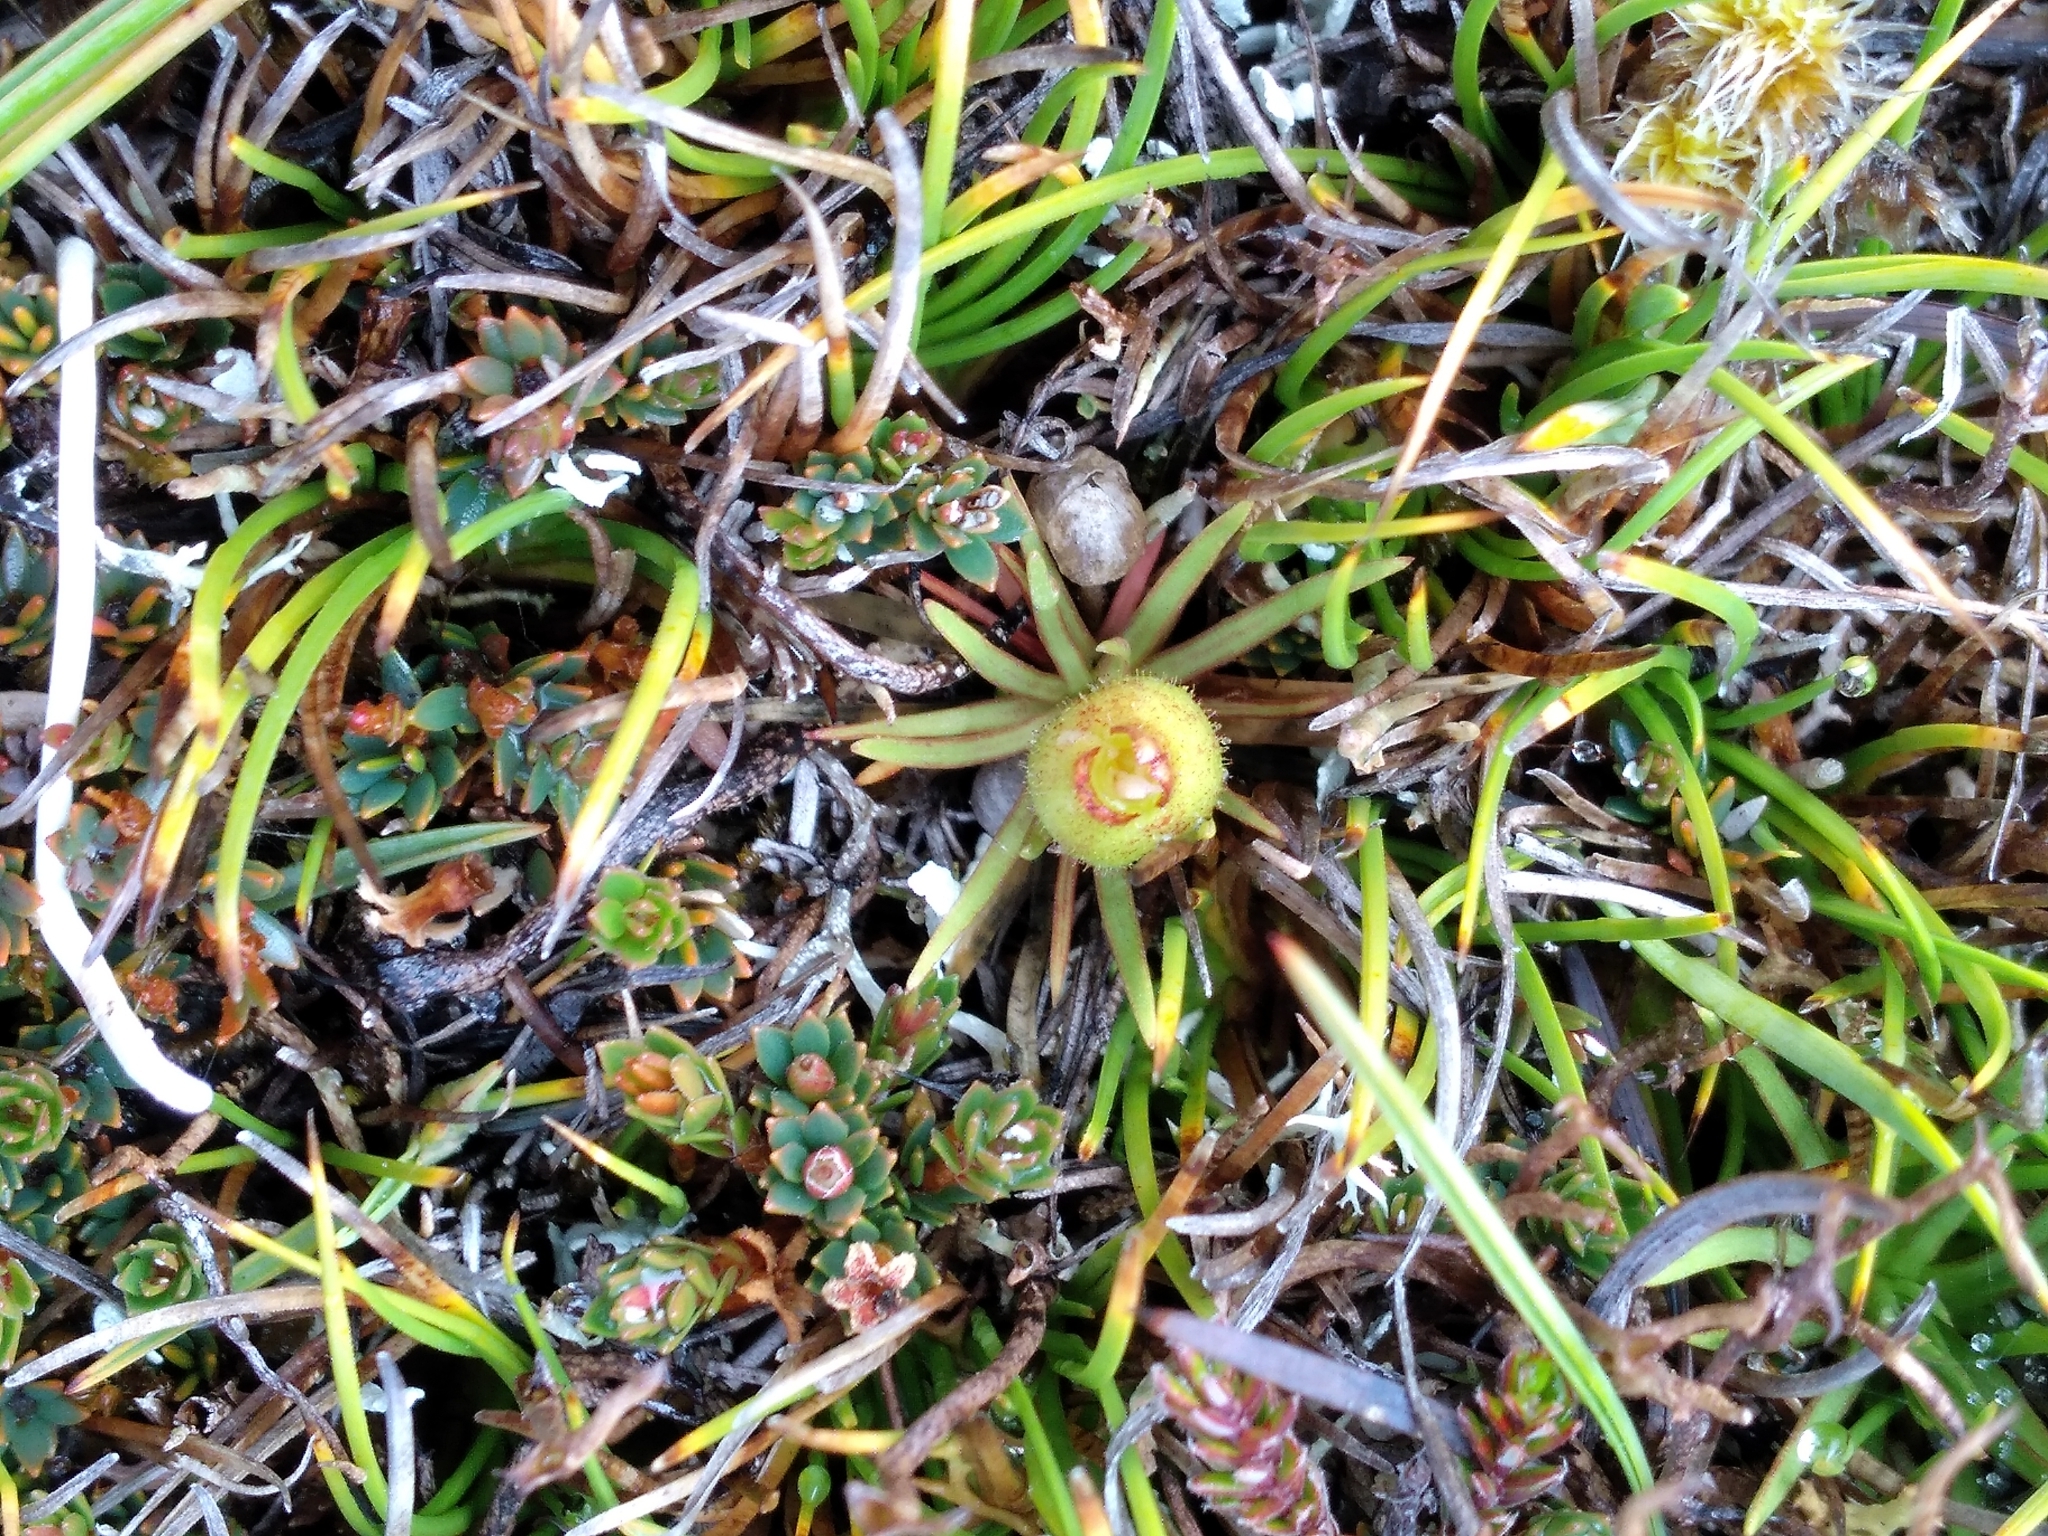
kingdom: Plantae
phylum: Tracheophyta
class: Magnoliopsida
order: Asterales
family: Stylidiaceae
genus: Oreostylidium
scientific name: Oreostylidium subulatum
